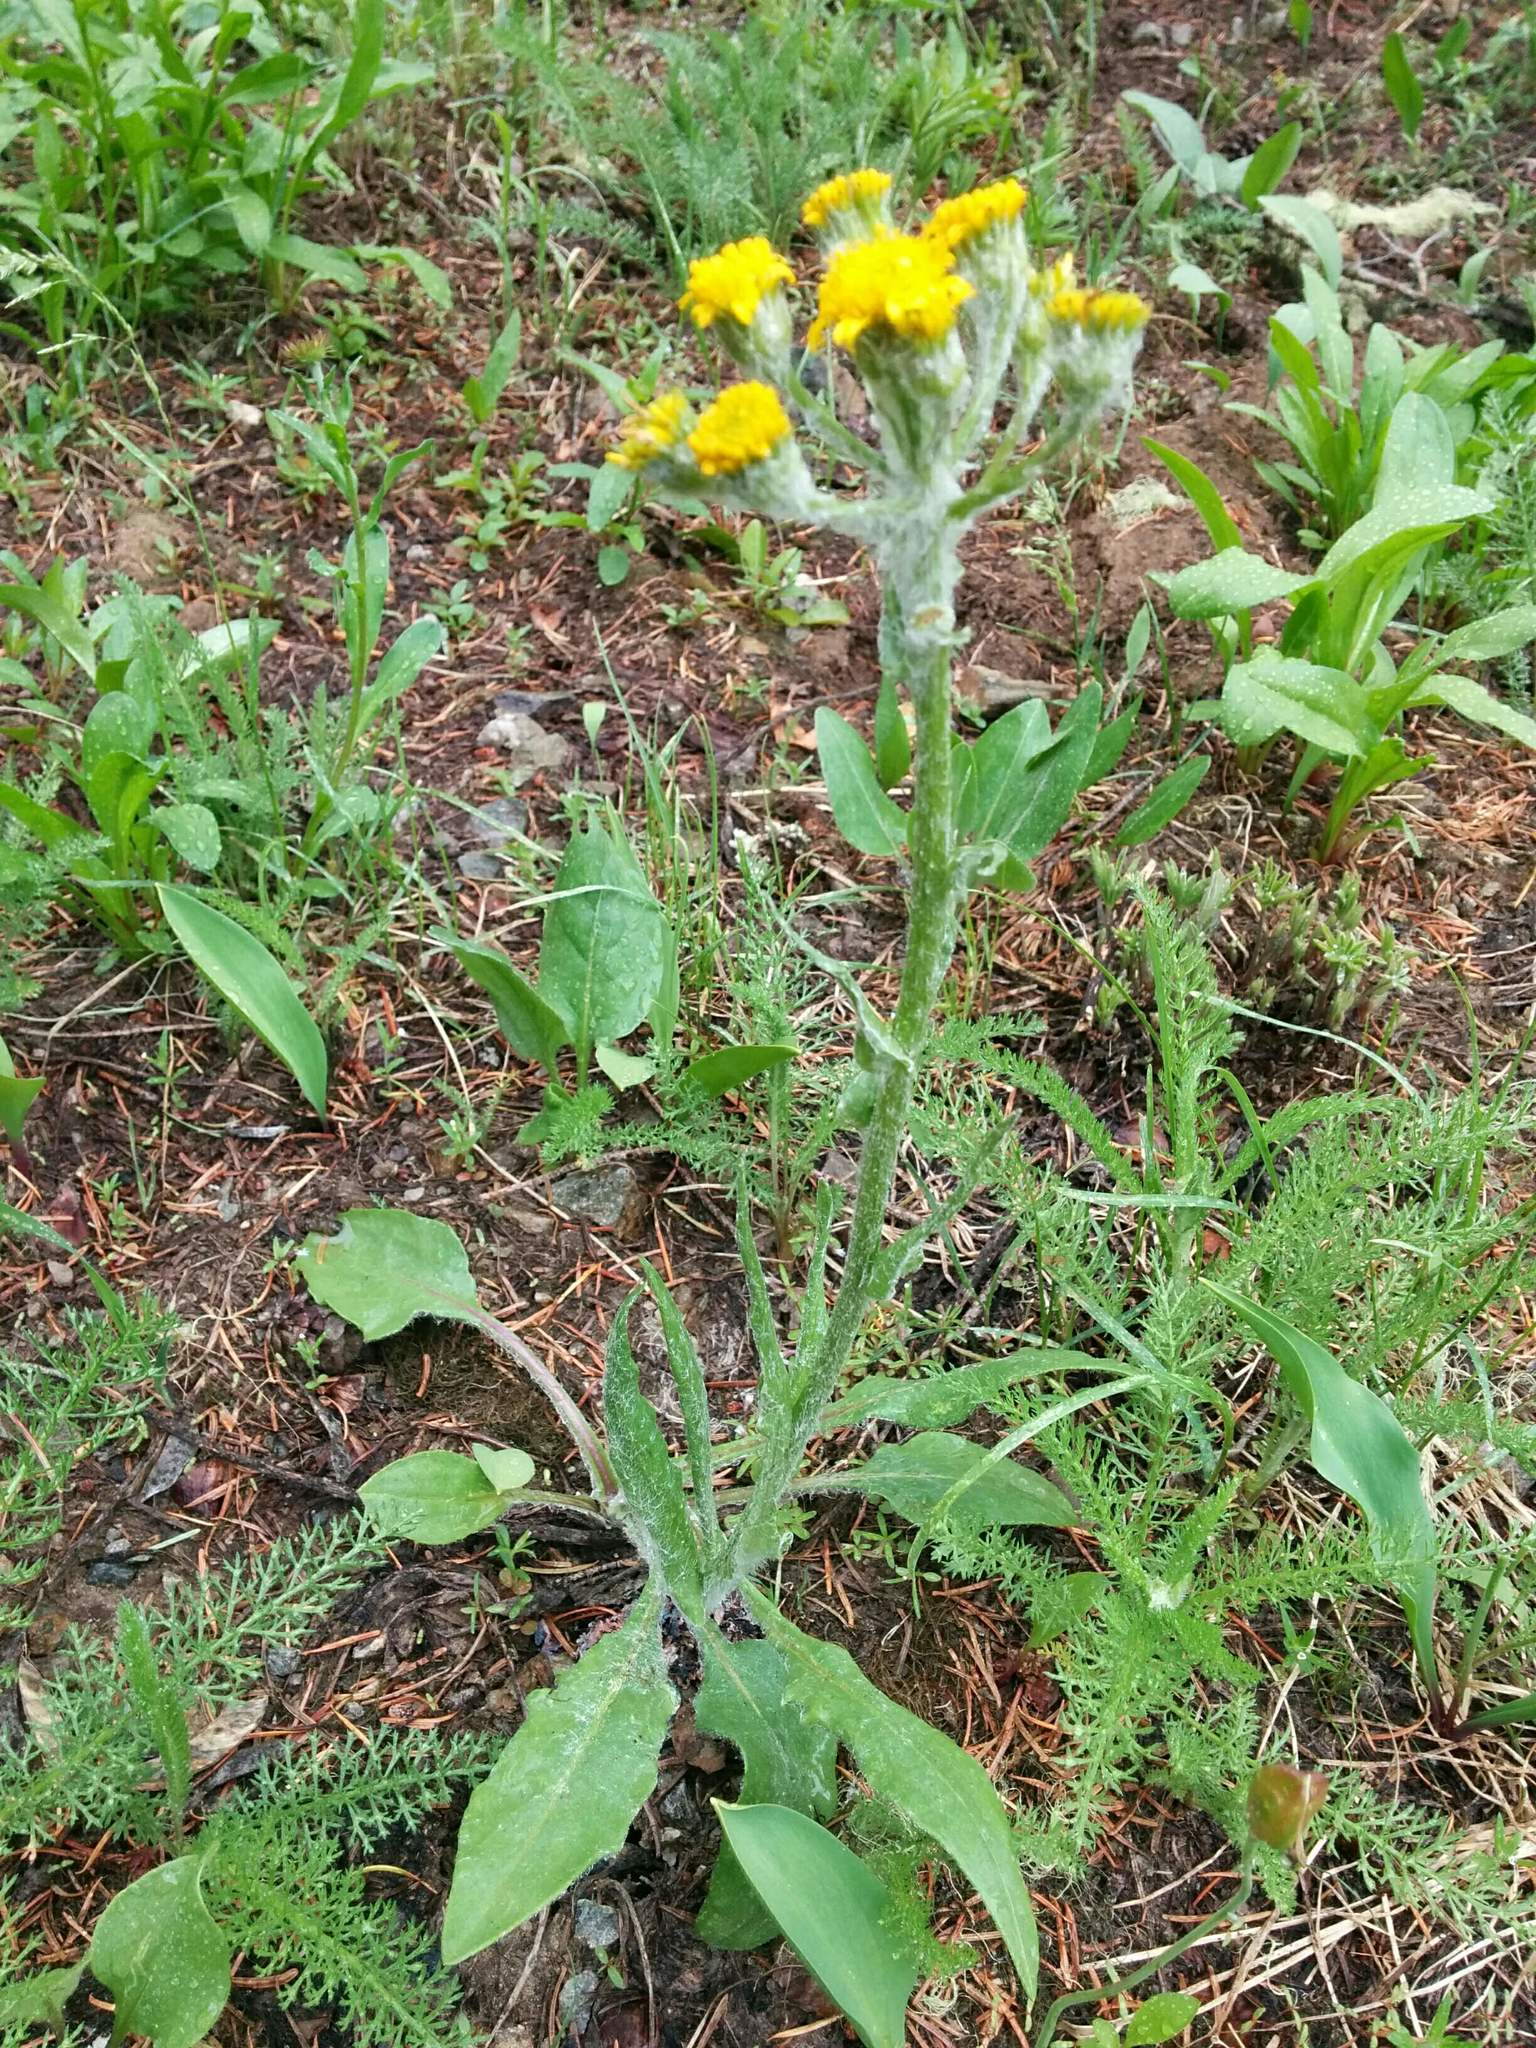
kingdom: Plantae
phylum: Tracheophyta
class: Magnoliopsida
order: Asterales
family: Asteraceae
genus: Senecio
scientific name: Senecio integerrimus
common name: Gaugeplant
